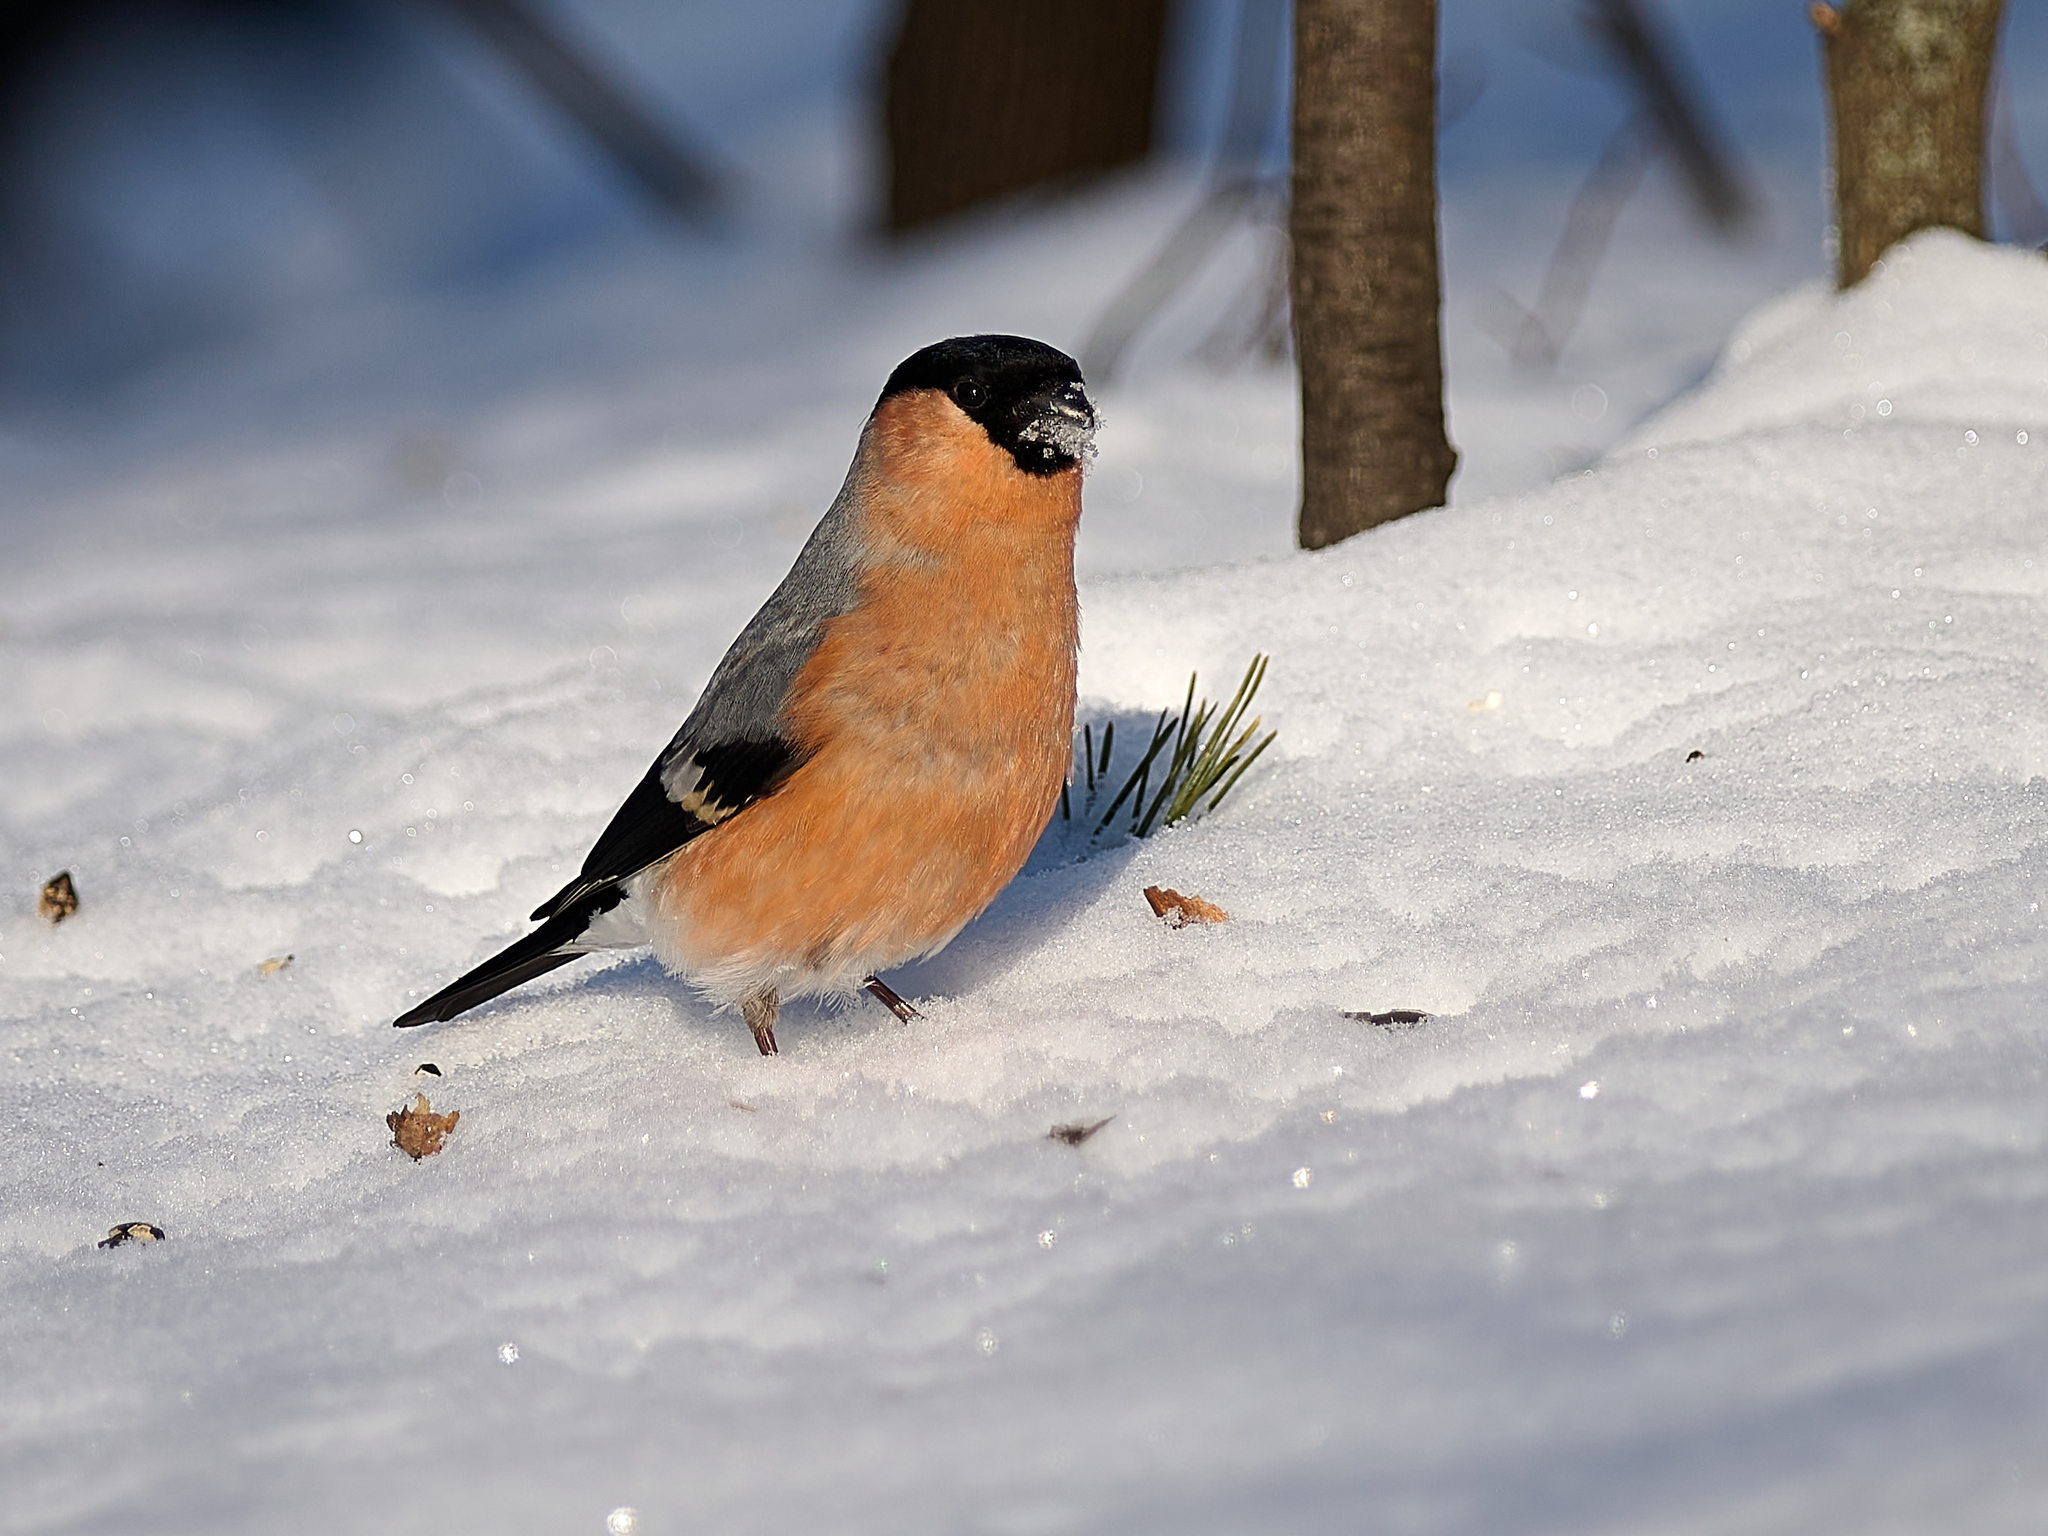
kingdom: Animalia
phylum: Chordata
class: Aves
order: Passeriformes
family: Fringillidae
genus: Pyrrhula
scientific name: Pyrrhula pyrrhula
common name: Eurasian bullfinch
